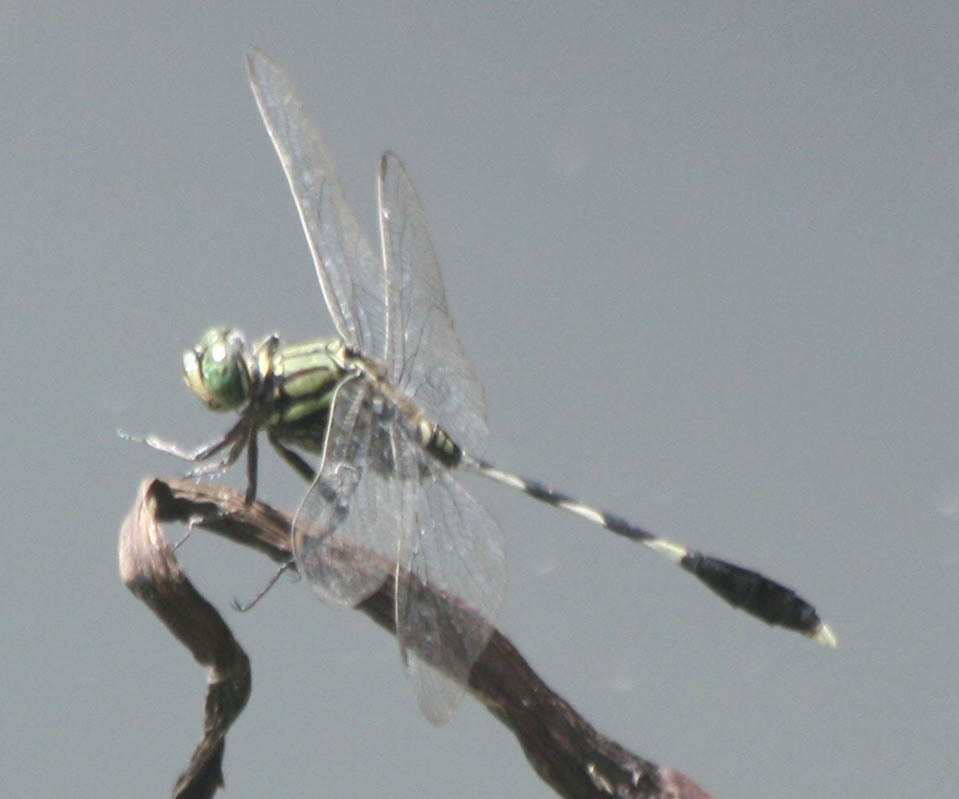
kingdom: Animalia
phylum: Arthropoda
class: Insecta
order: Odonata
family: Libellulidae
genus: Orthetrum
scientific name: Orthetrum sabina
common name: Slender skimmer
